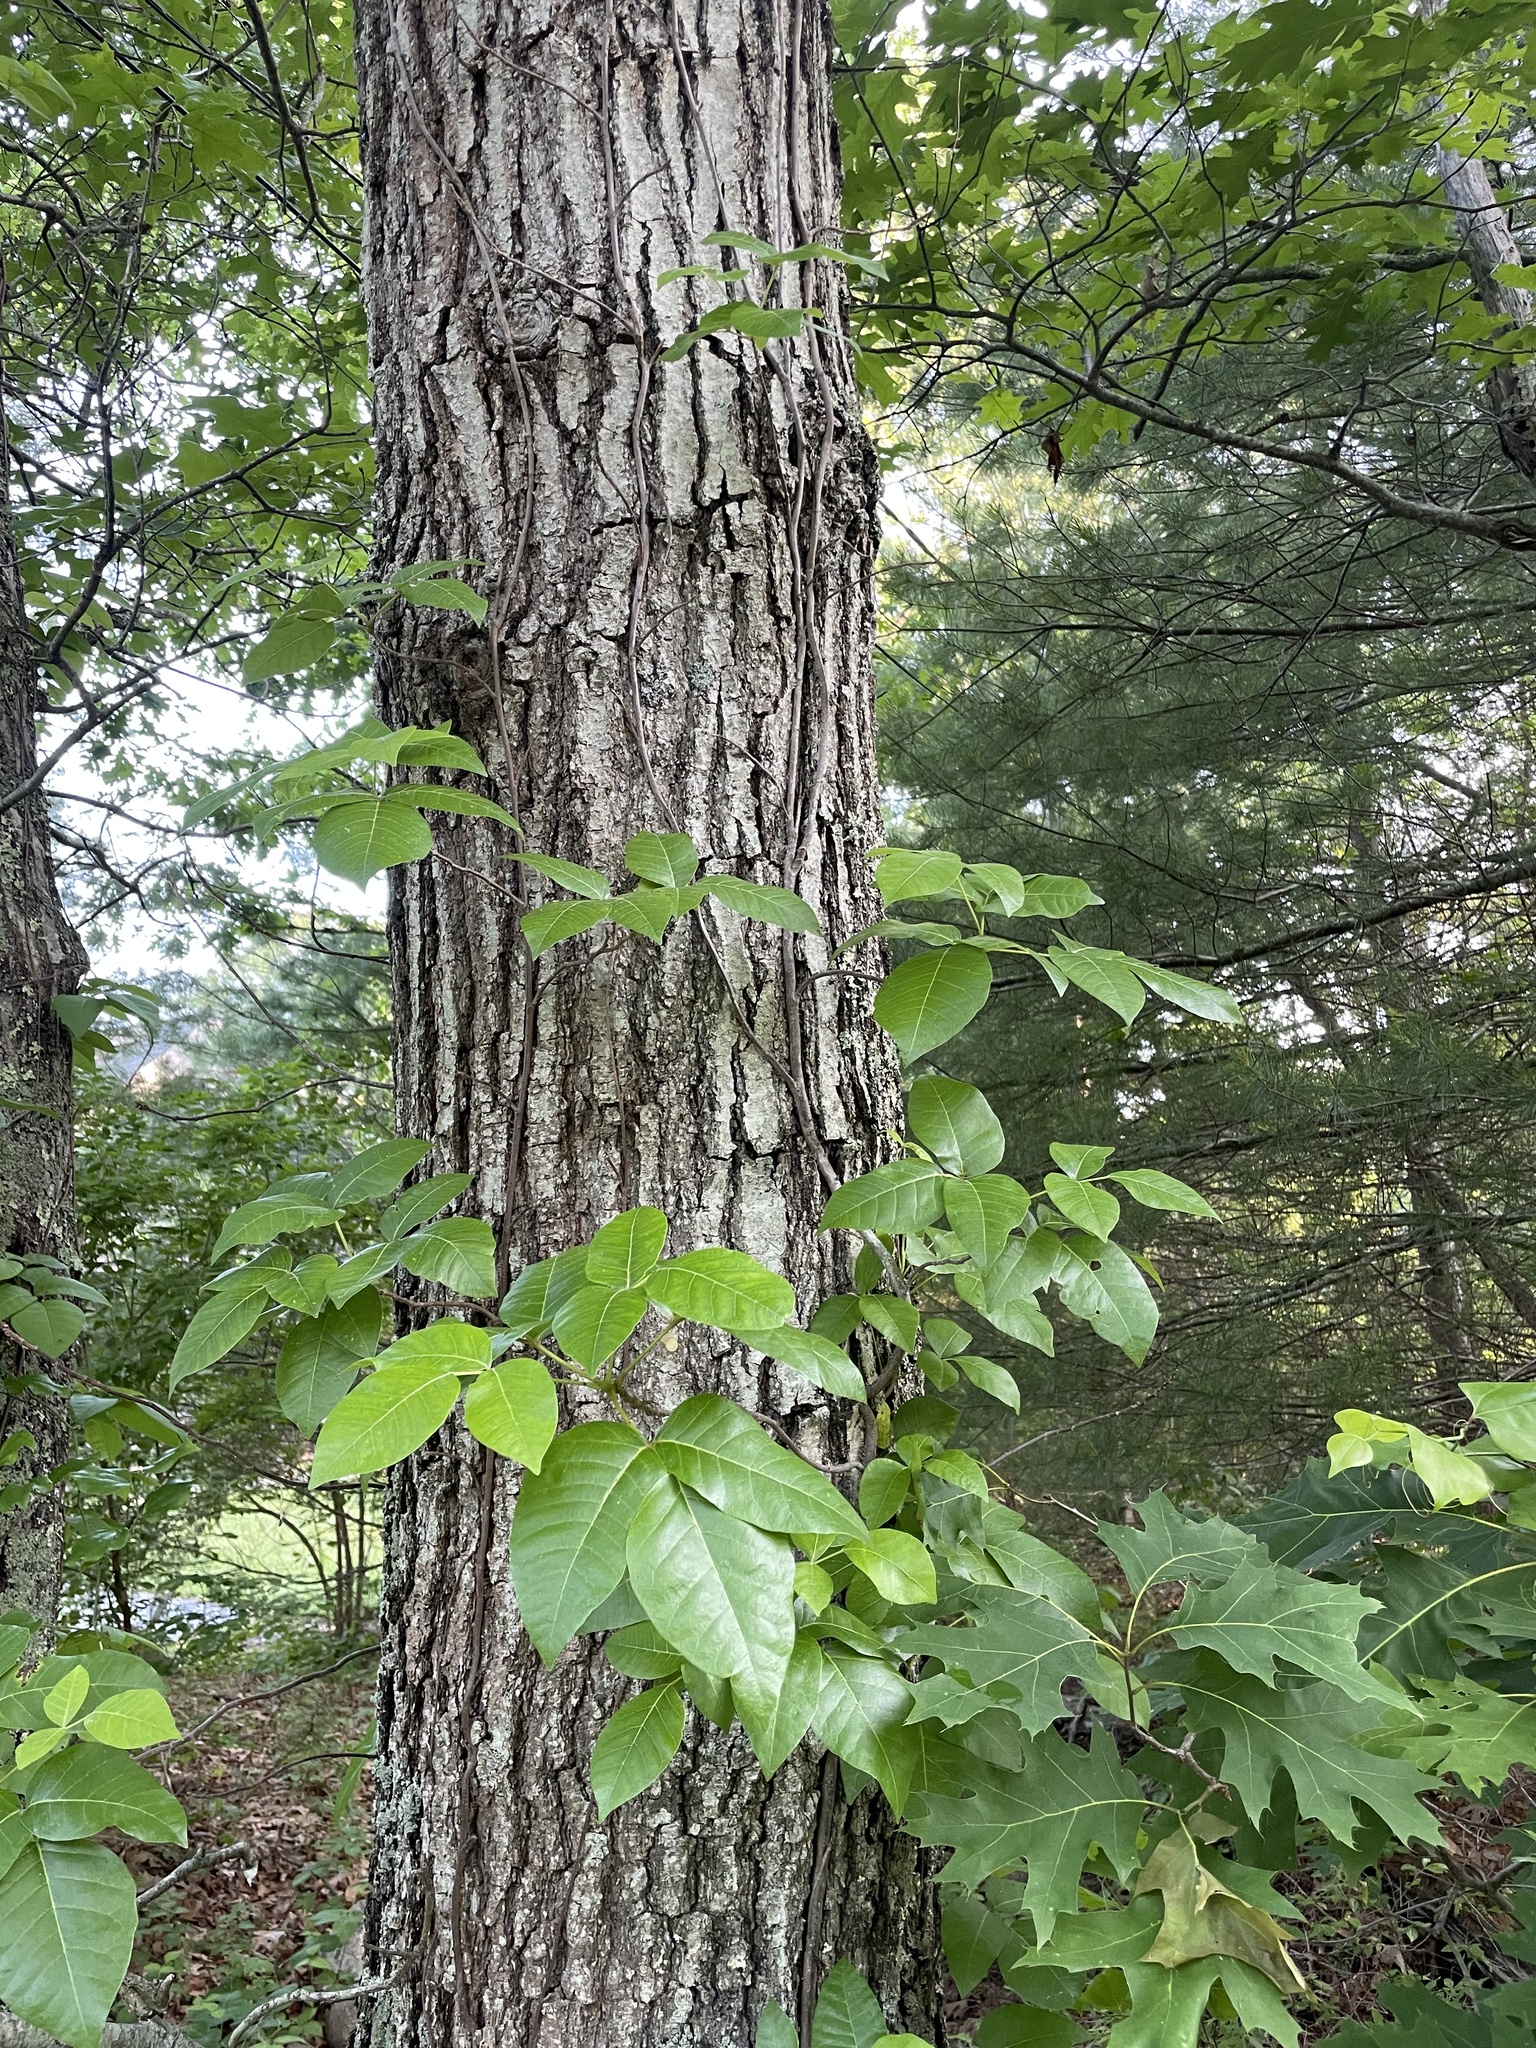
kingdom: Plantae
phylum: Tracheophyta
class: Magnoliopsida
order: Sapindales
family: Anacardiaceae
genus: Toxicodendron
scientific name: Toxicodendron radicans
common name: Poison ivy
